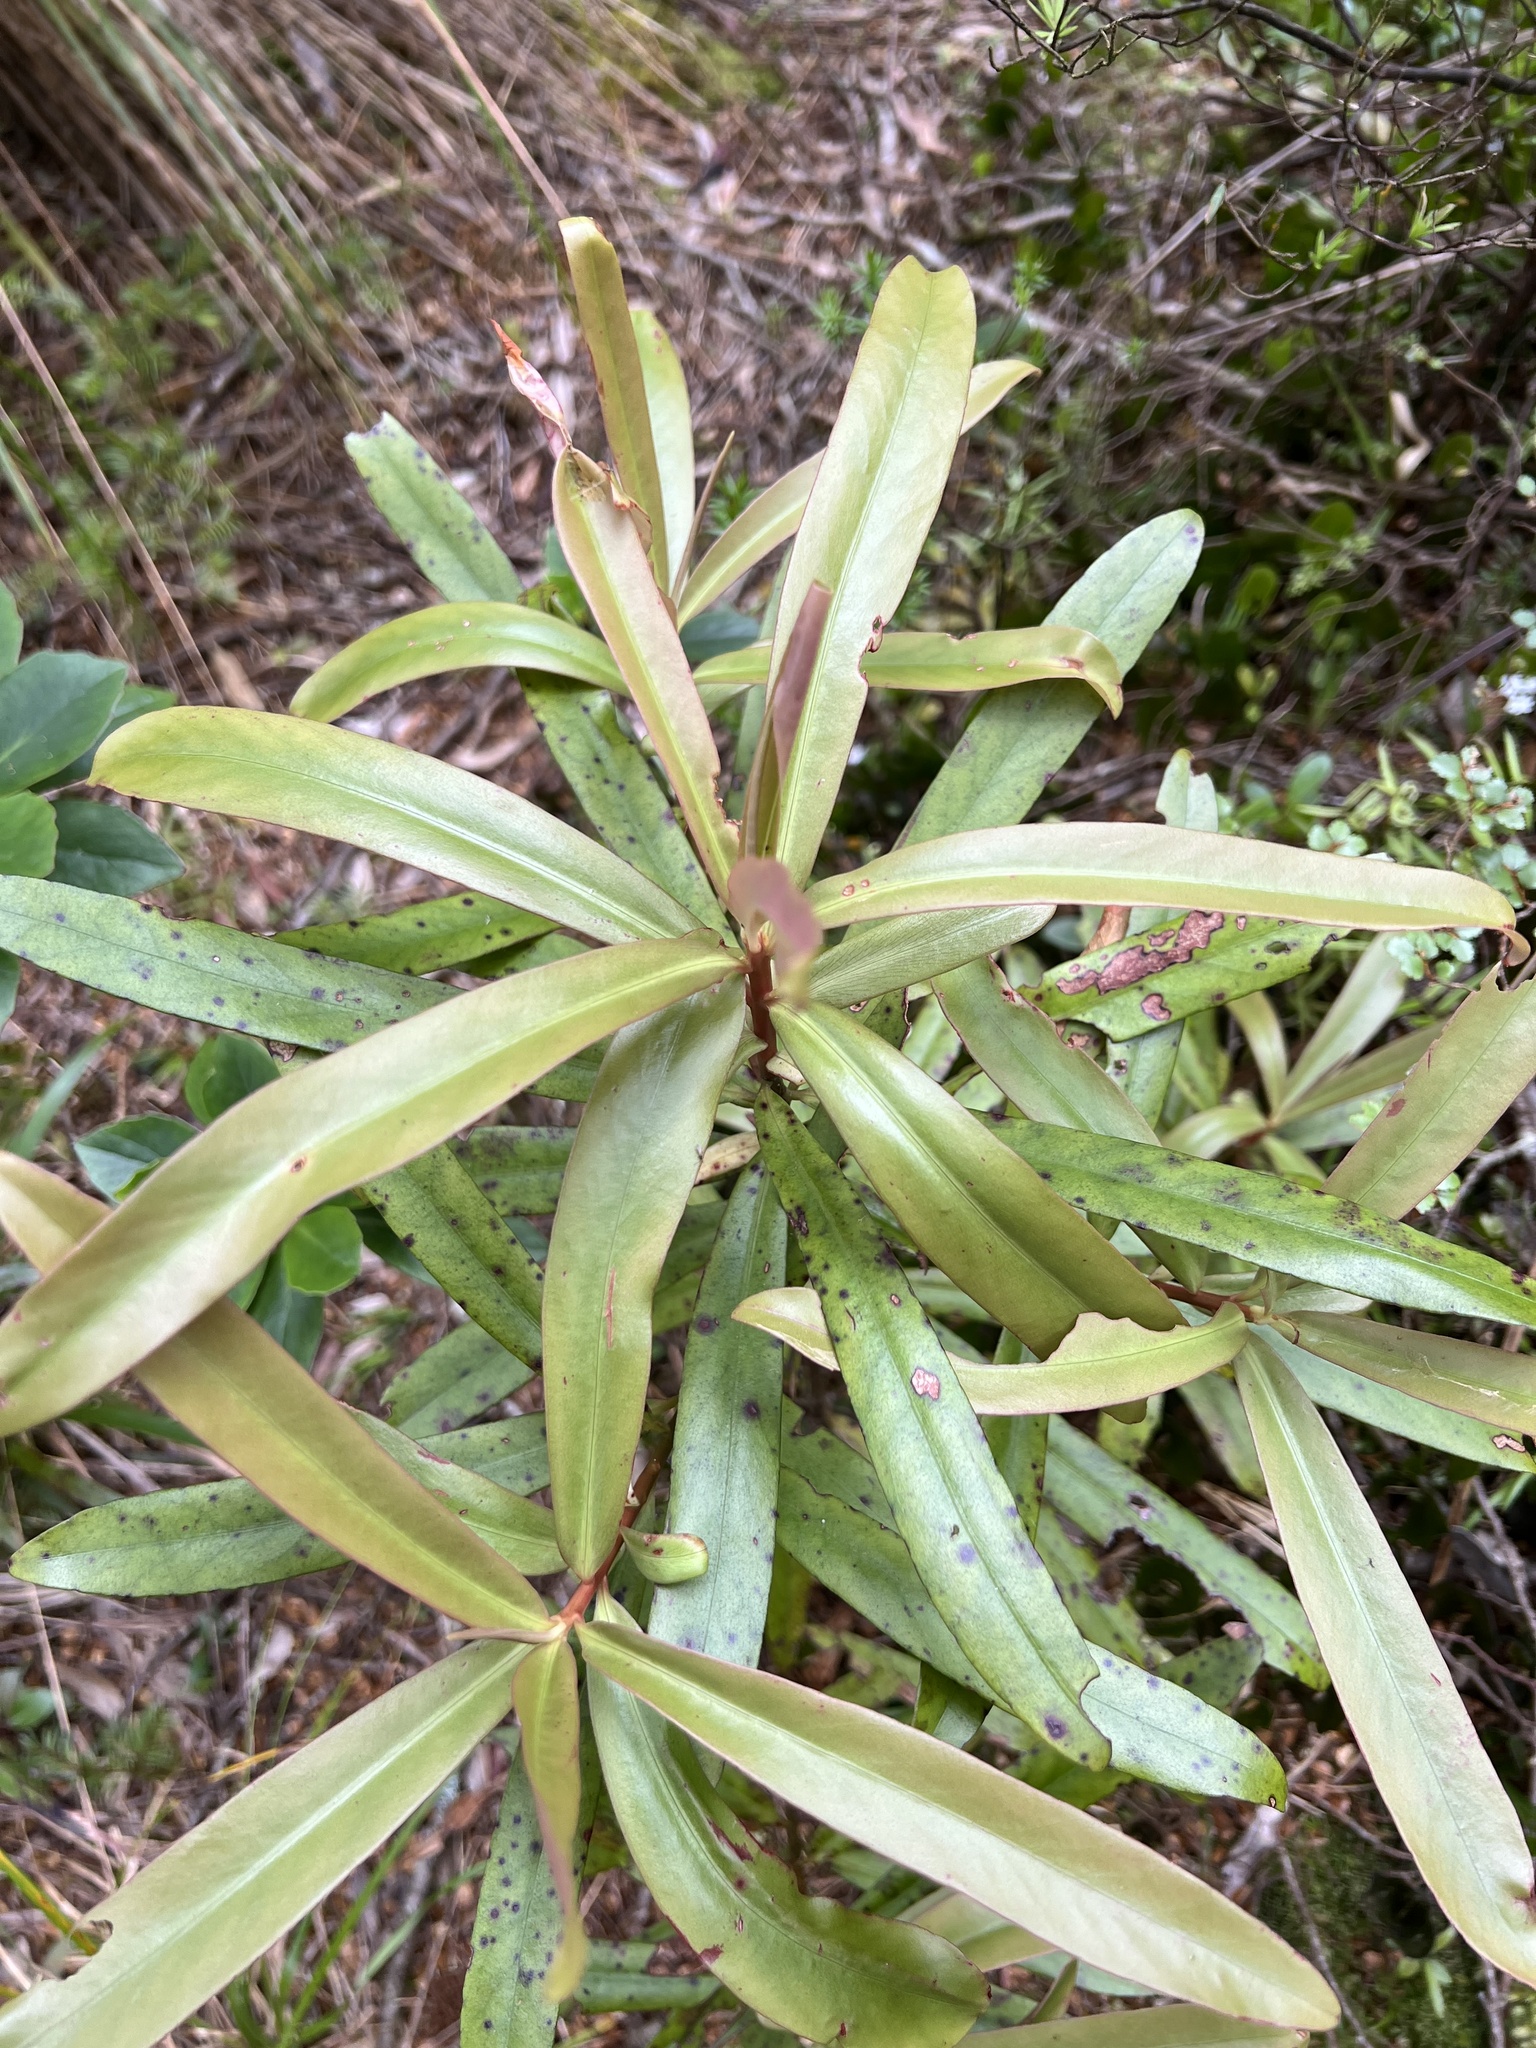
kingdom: Plantae
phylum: Tracheophyta
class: Magnoliopsida
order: Ericales
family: Primulaceae
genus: Myrsine
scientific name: Myrsine salicina
